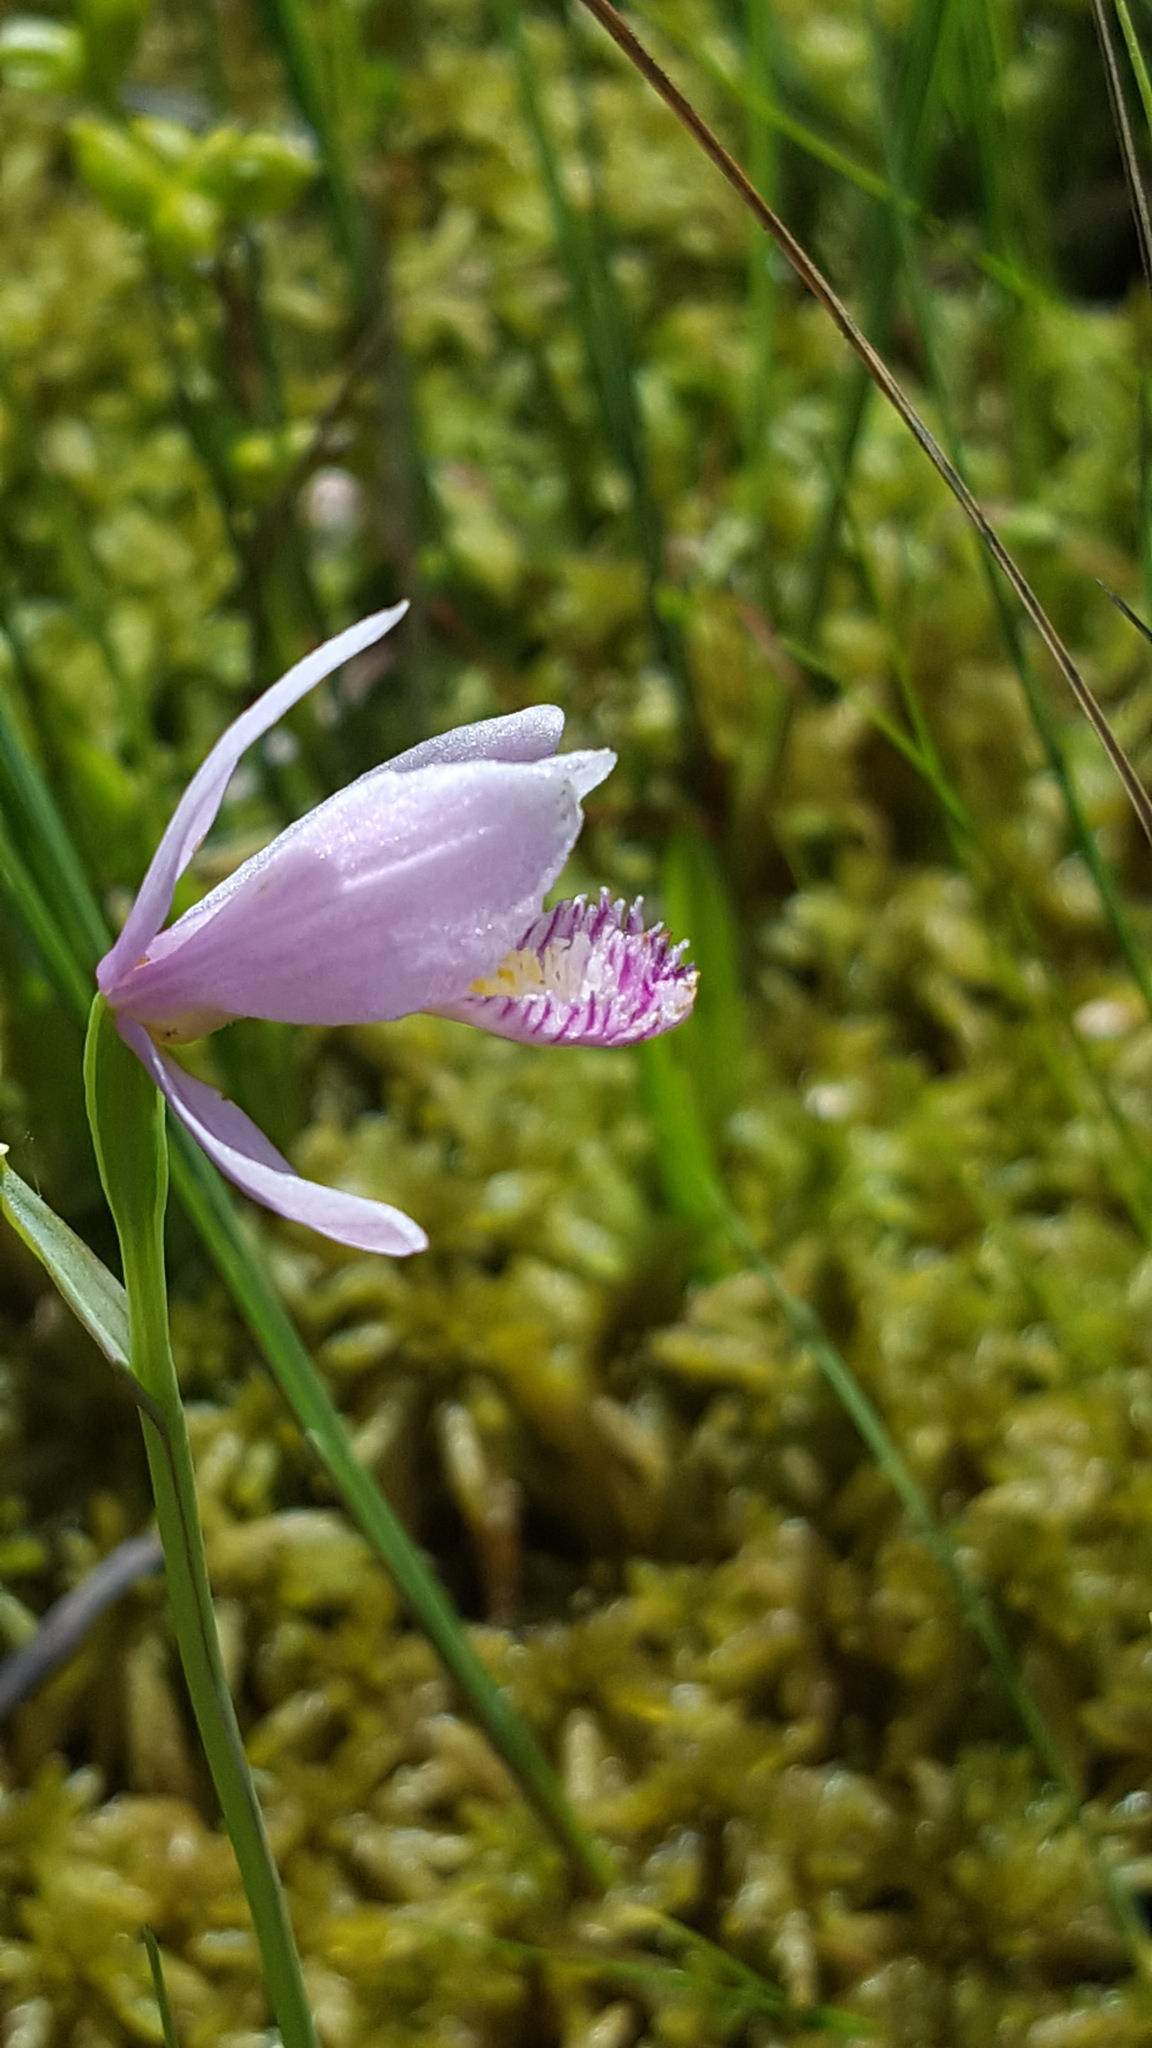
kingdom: Plantae
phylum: Tracheophyta
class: Liliopsida
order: Asparagales
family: Orchidaceae
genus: Pogonia
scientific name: Pogonia ophioglossoides
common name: Rose pogonia
